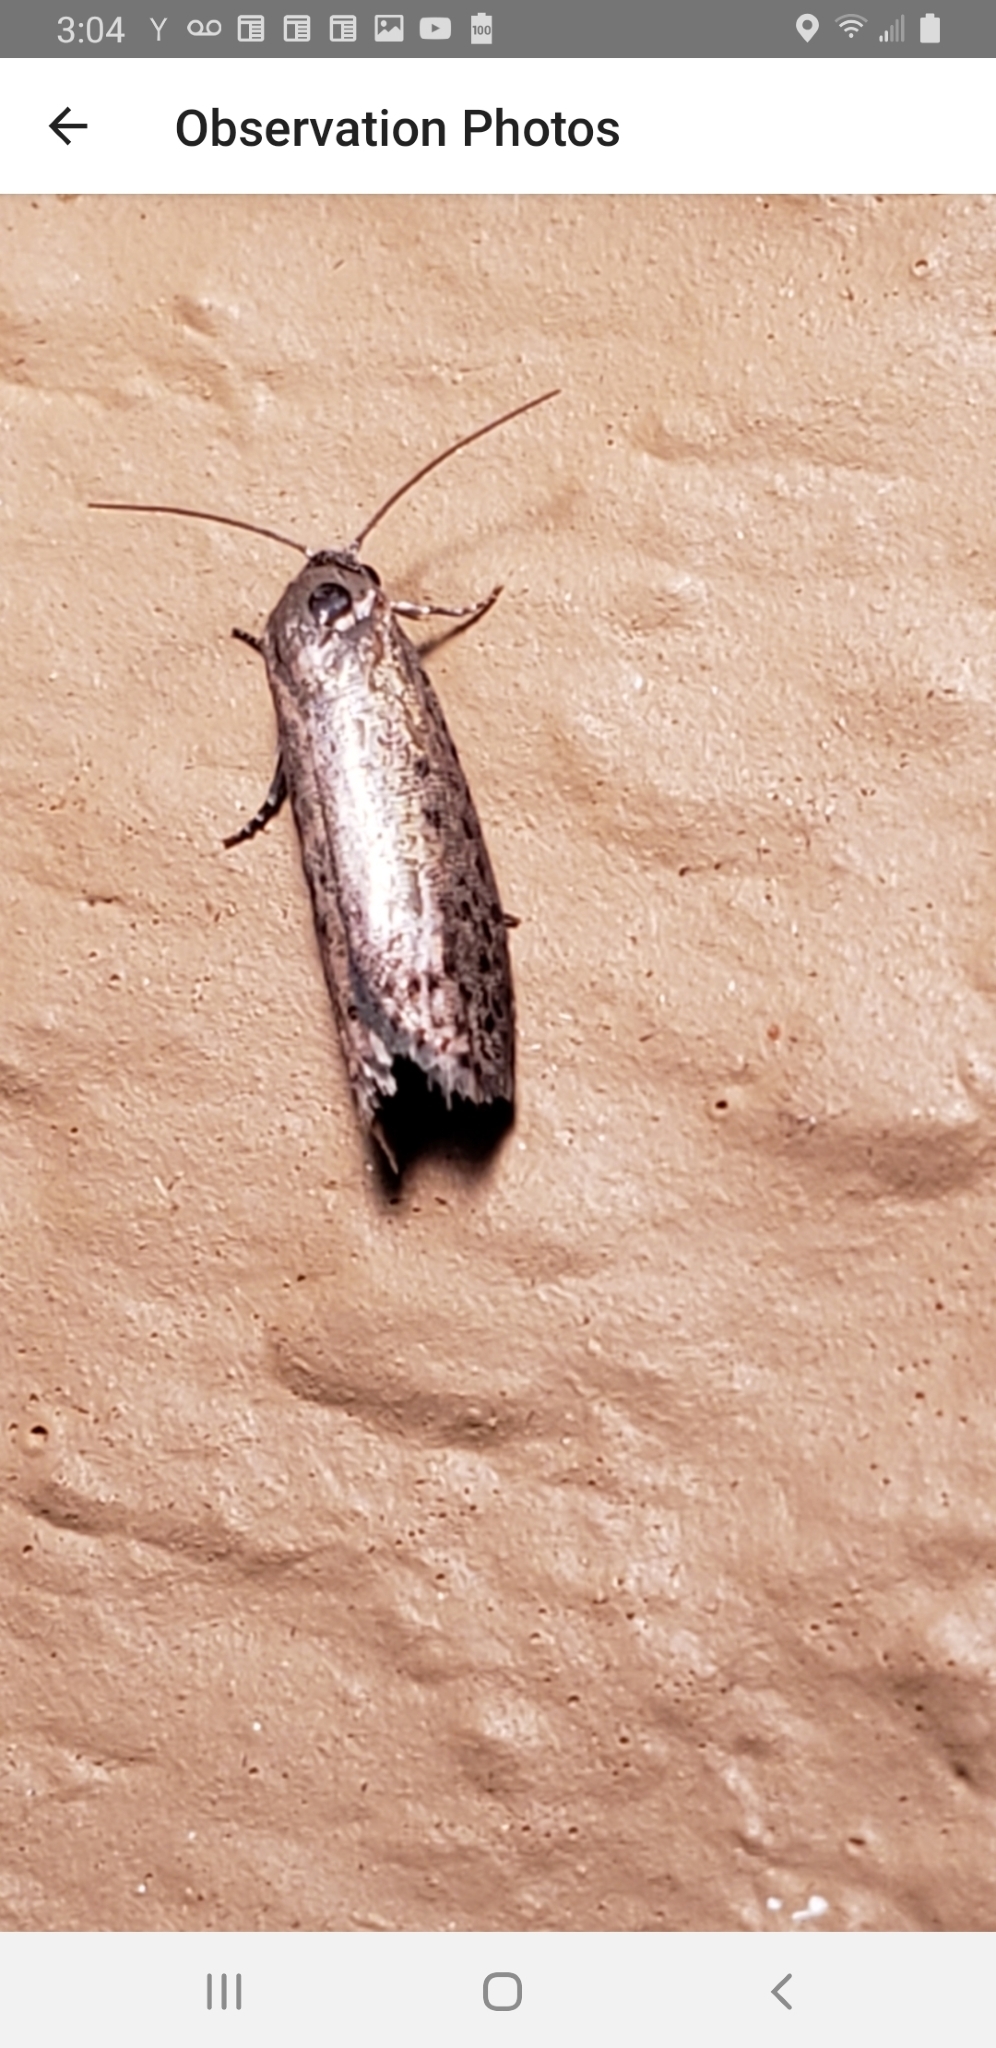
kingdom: Animalia
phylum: Arthropoda
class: Insecta
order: Lepidoptera
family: Galacticidae
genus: Homadaula
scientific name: Homadaula anisocentra
